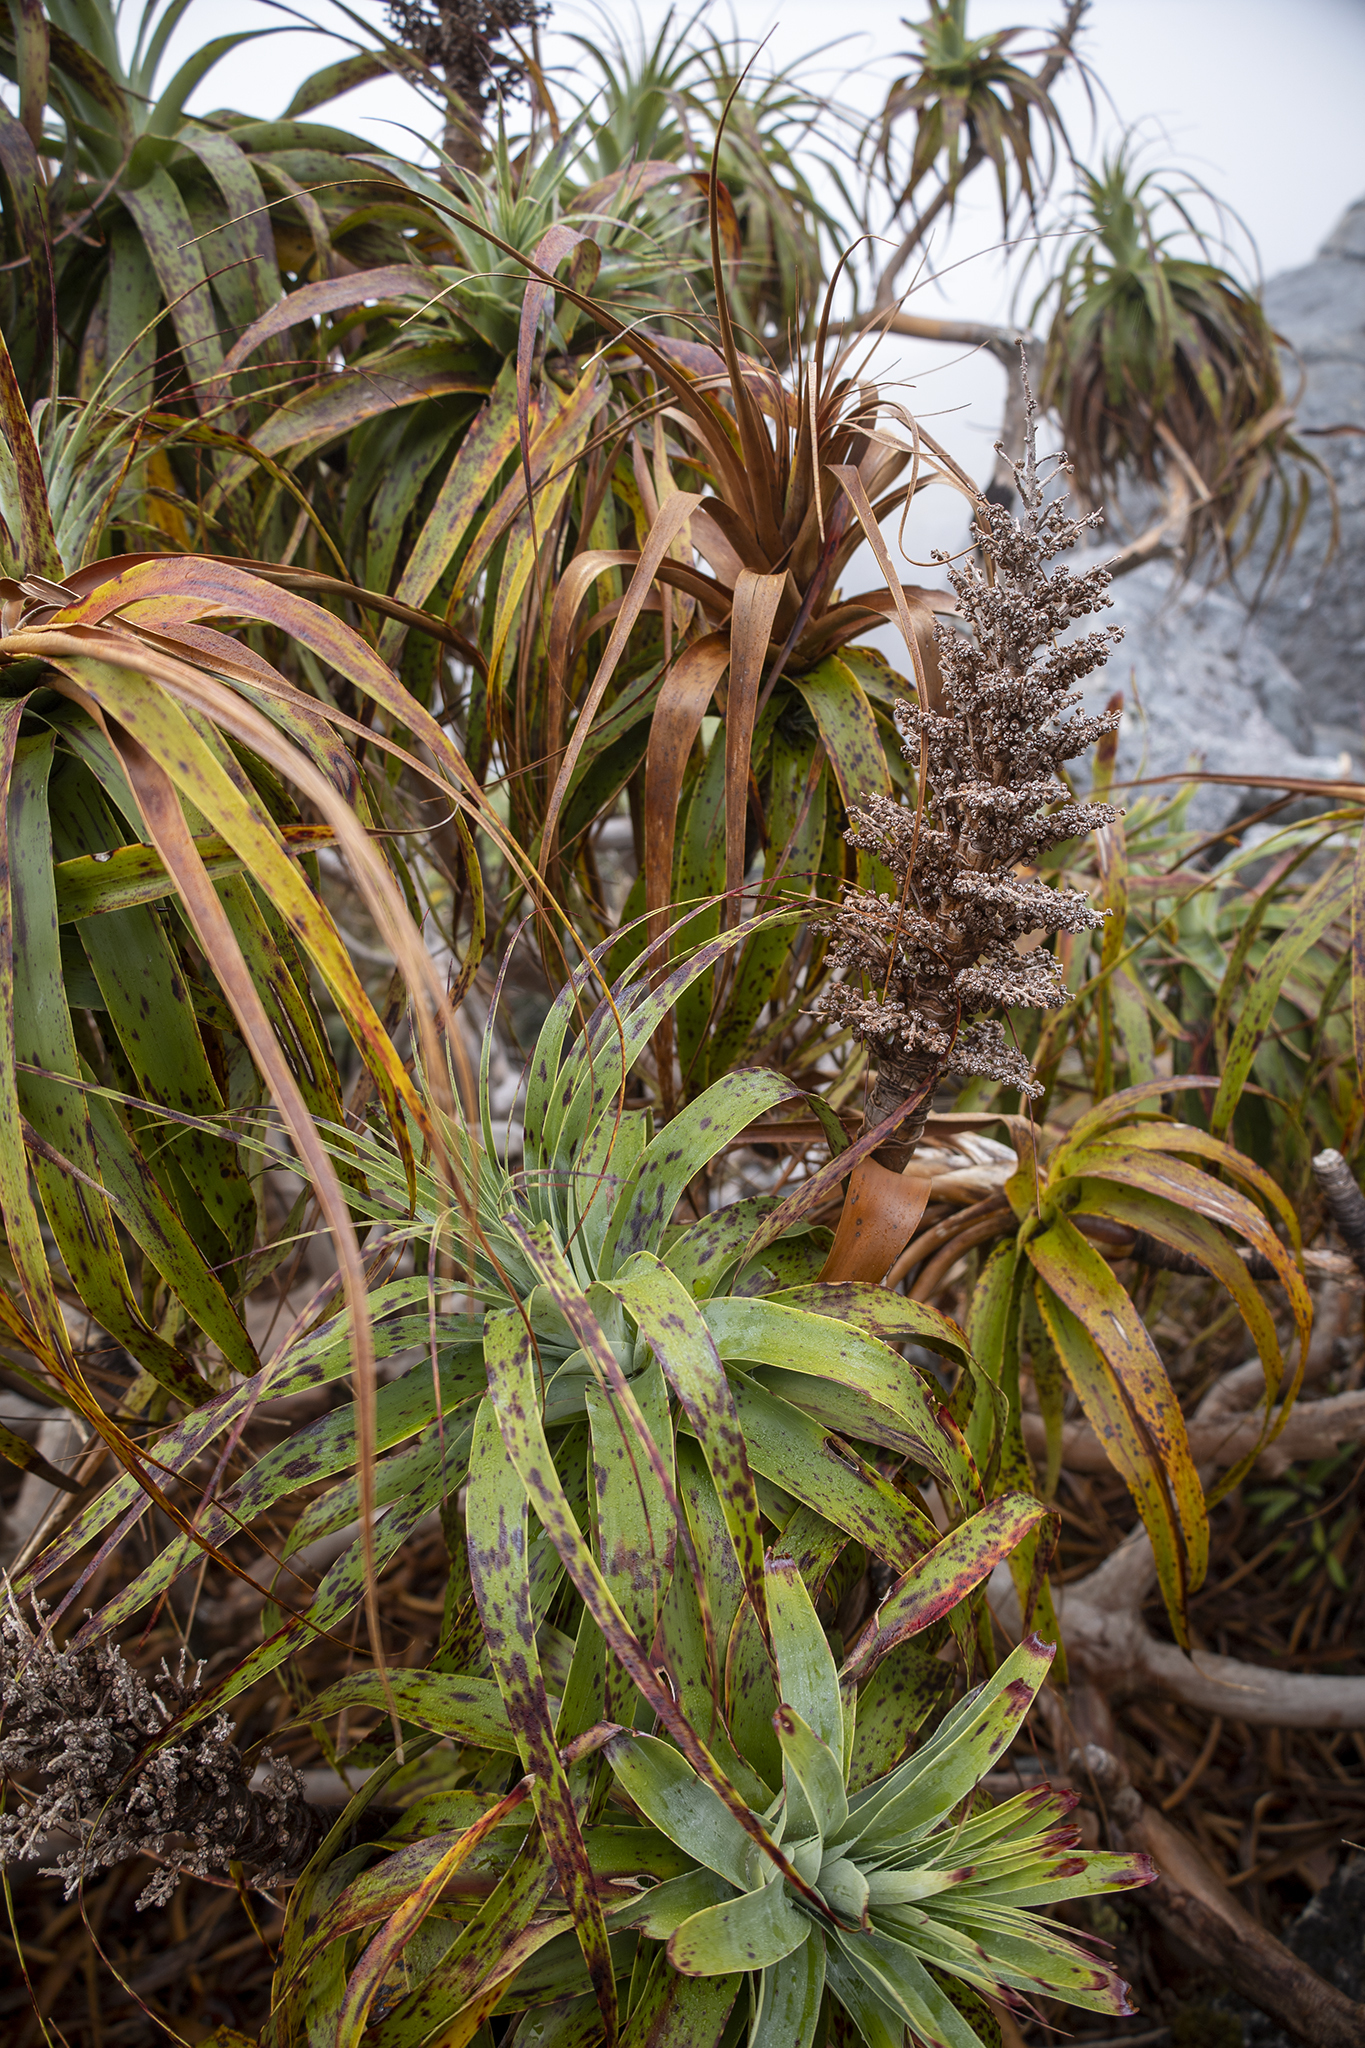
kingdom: Plantae
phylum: Tracheophyta
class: Magnoliopsida
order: Ericales
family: Ericaceae
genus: Dracophyllum
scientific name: Dracophyllum traversii
